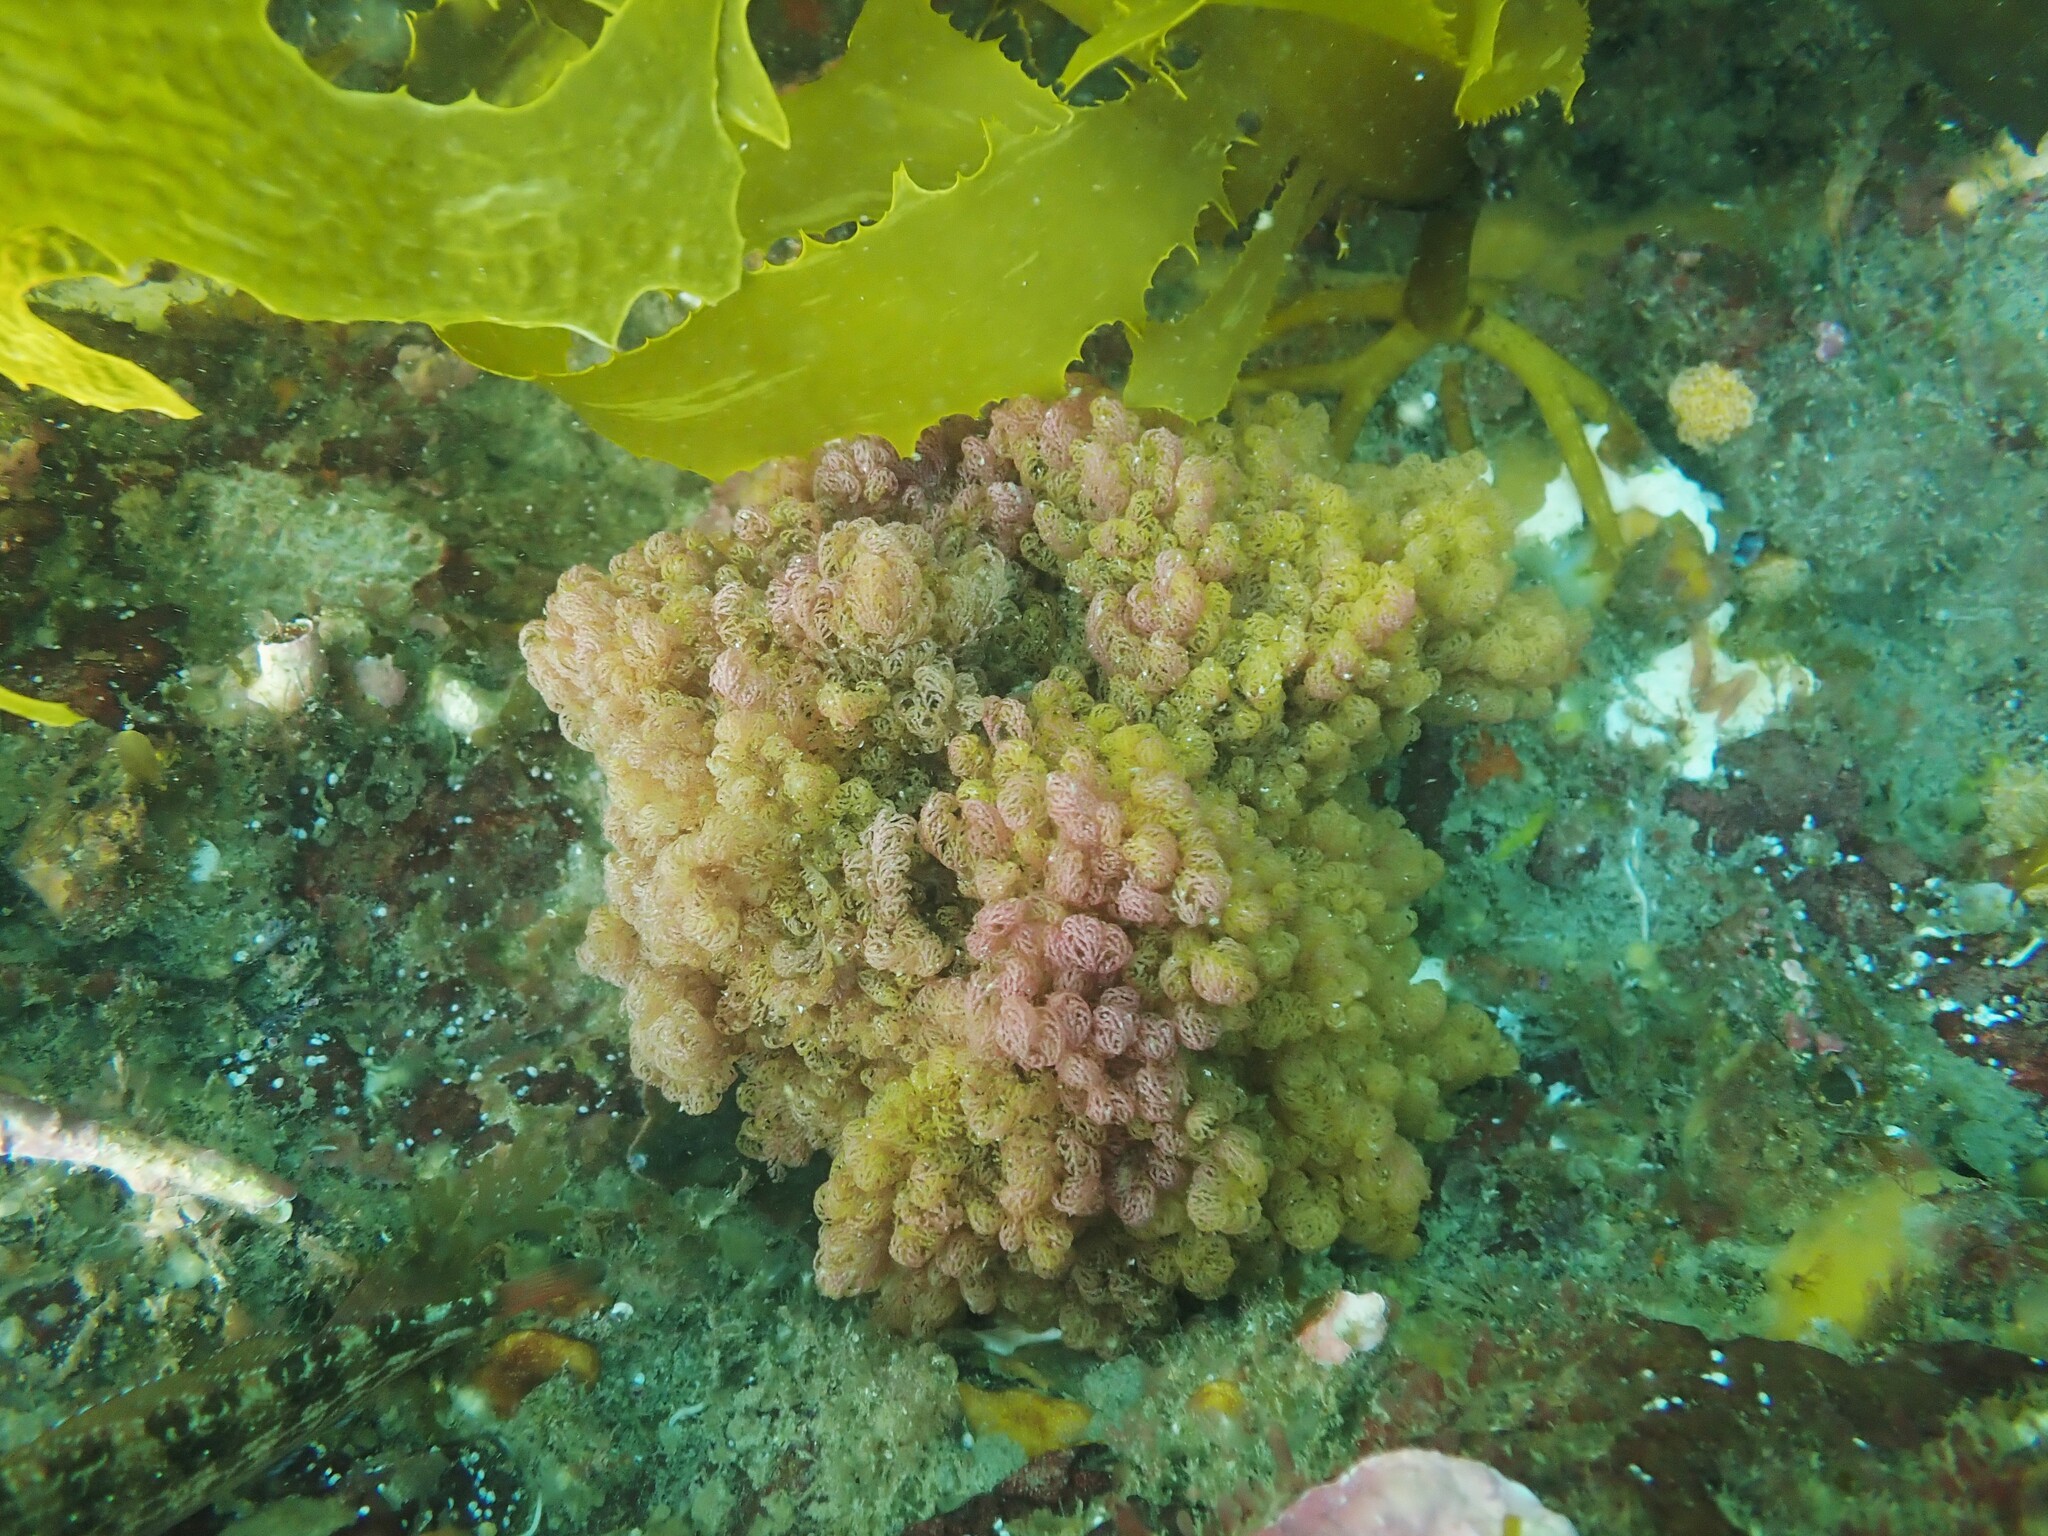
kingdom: Animalia
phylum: Mollusca
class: Gastropoda
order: Nudibranchia
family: Janolidae
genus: Janolus
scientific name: Janolus ignis
